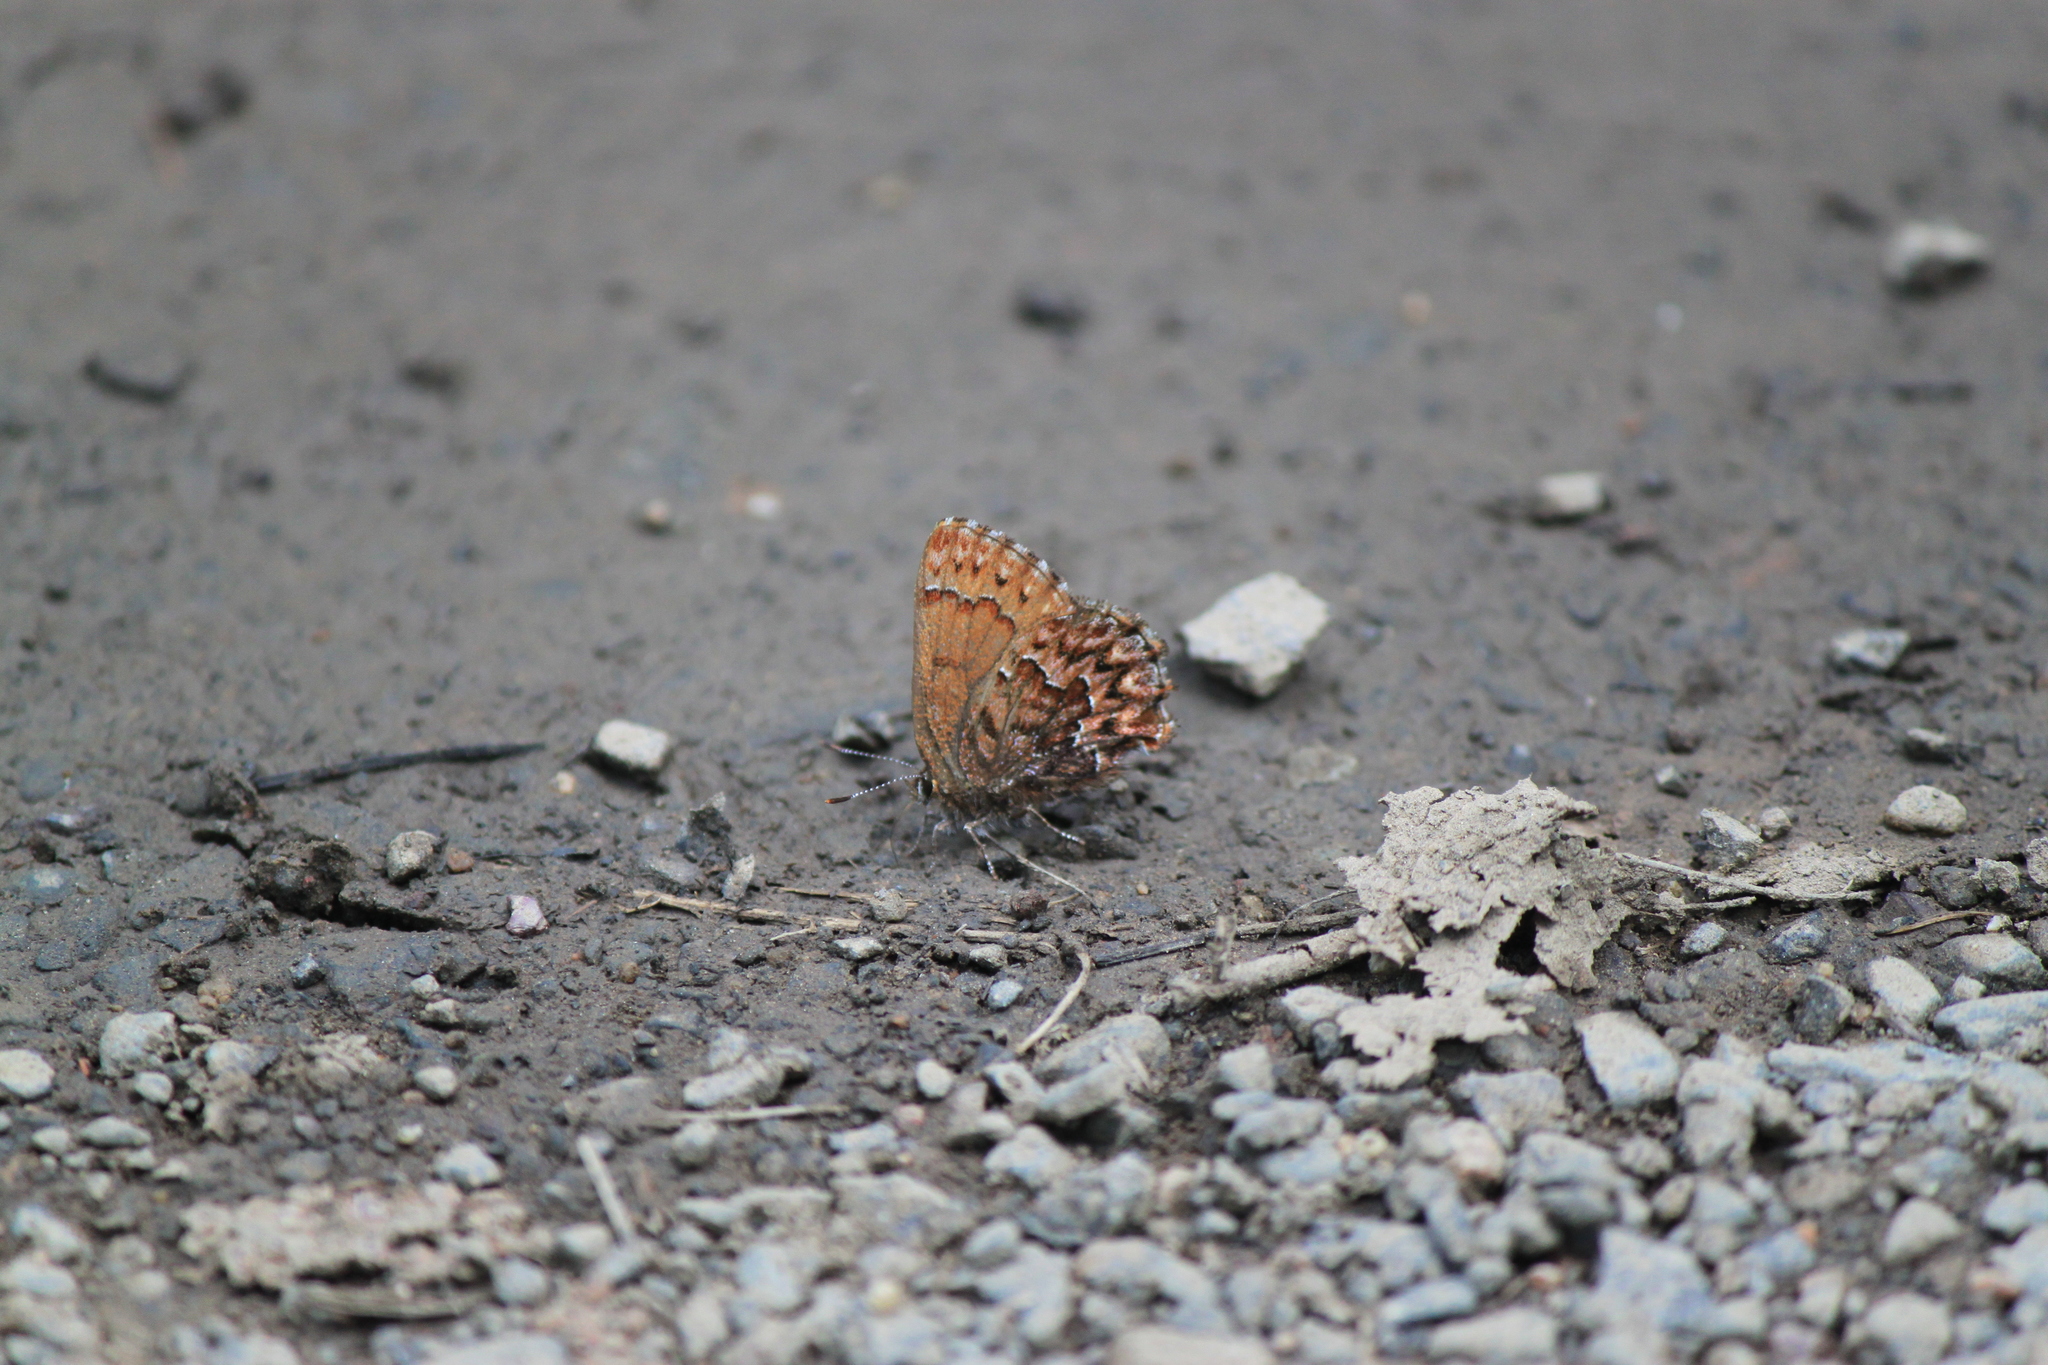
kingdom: Animalia
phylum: Arthropoda
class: Insecta
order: Lepidoptera
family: Lycaenidae
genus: Incisalia
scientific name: Incisalia eryphon
